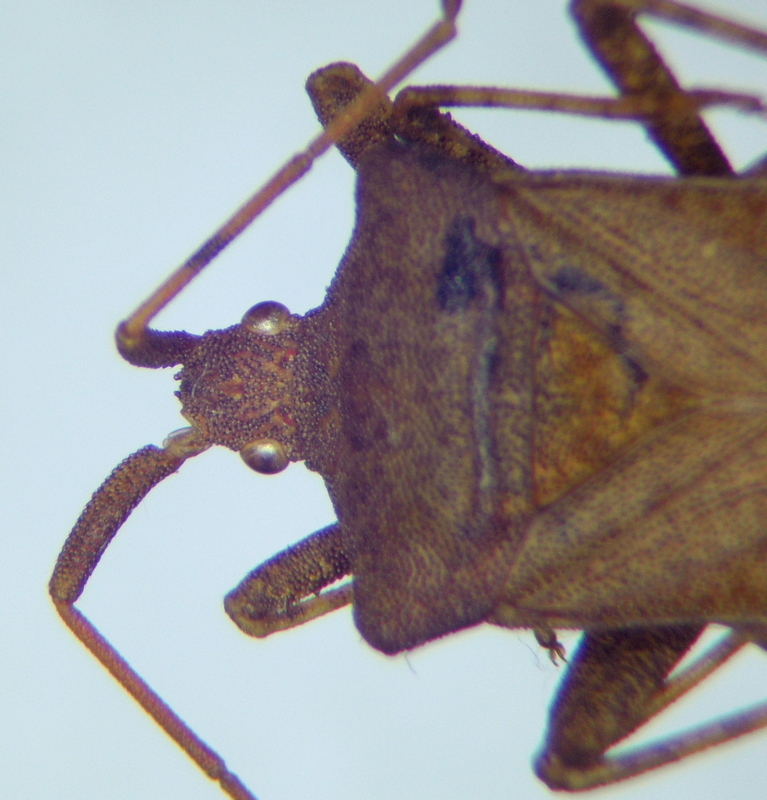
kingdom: Animalia
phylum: Arthropoda
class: Insecta
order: Hemiptera
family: Coreidae
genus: Coreus
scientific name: Coreus marginatus
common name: Dock bug
